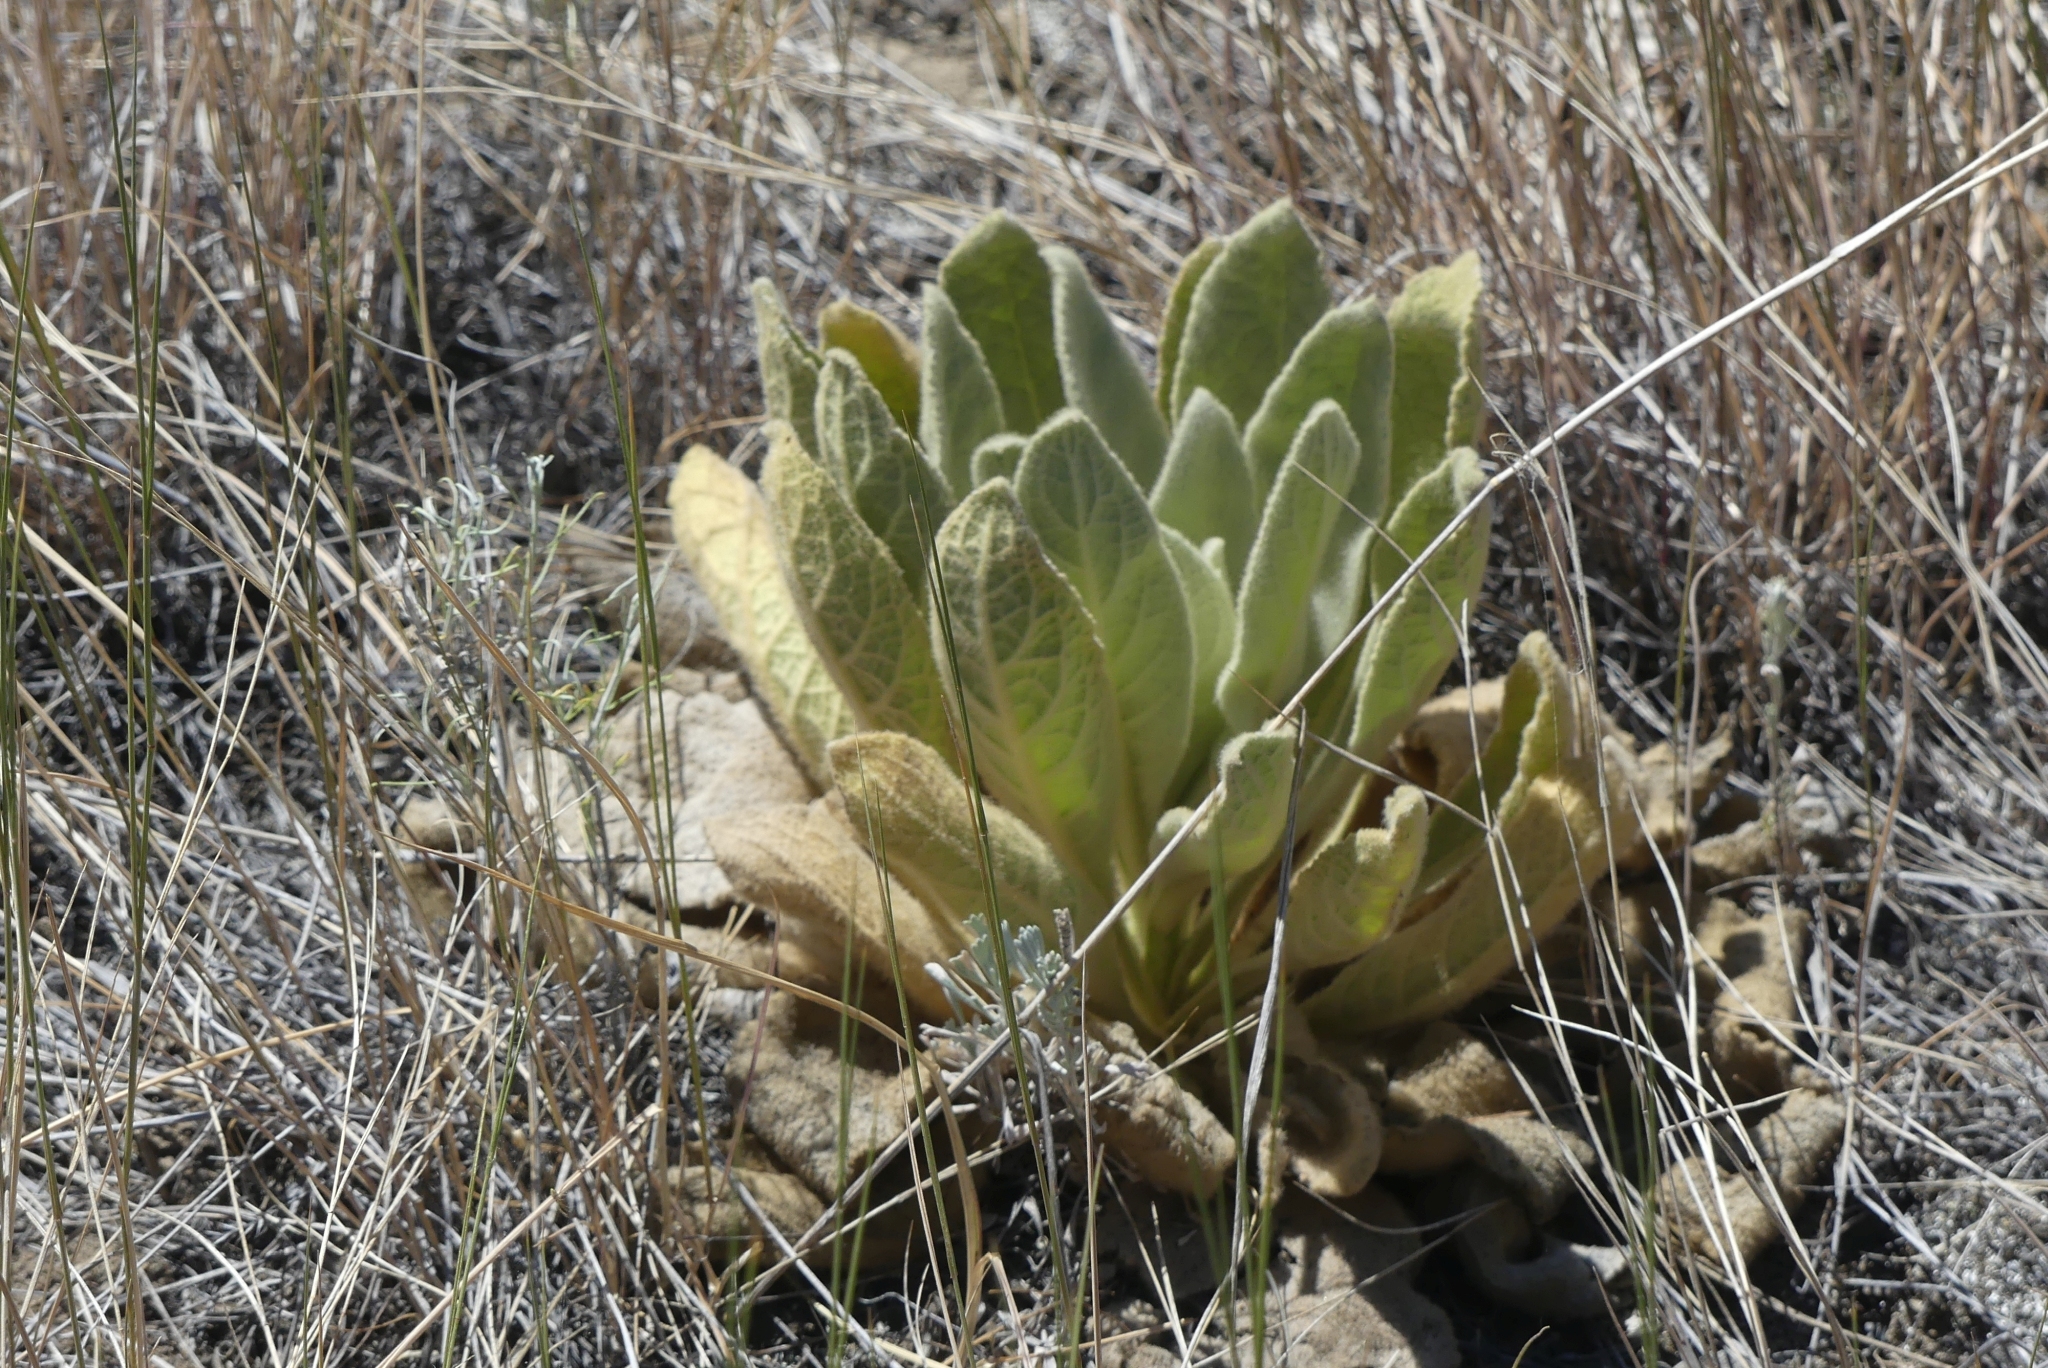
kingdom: Plantae
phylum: Tracheophyta
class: Magnoliopsida
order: Lamiales
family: Scrophulariaceae
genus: Verbascum
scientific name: Verbascum thapsus
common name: Common mullein
